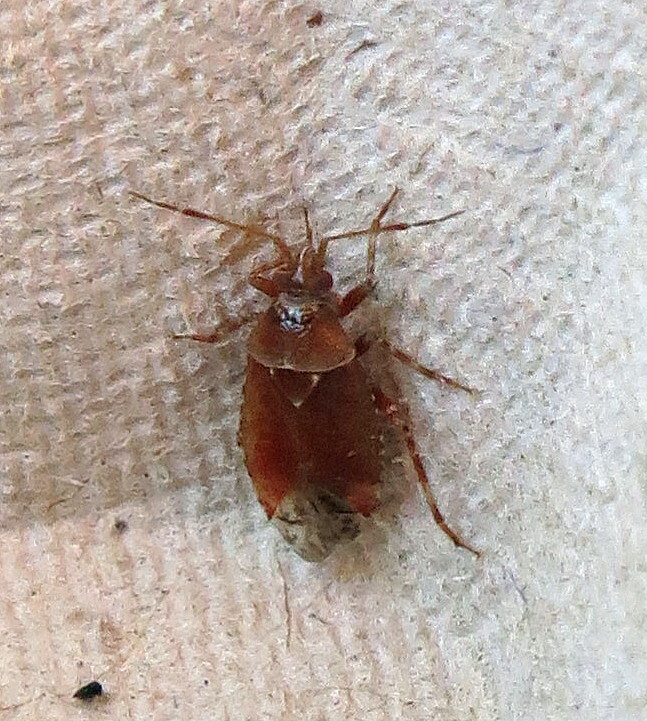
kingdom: Animalia
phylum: Arthropoda
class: Insecta
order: Hemiptera
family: Miridae
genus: Alloeotomus
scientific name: Alloeotomus gothicus
